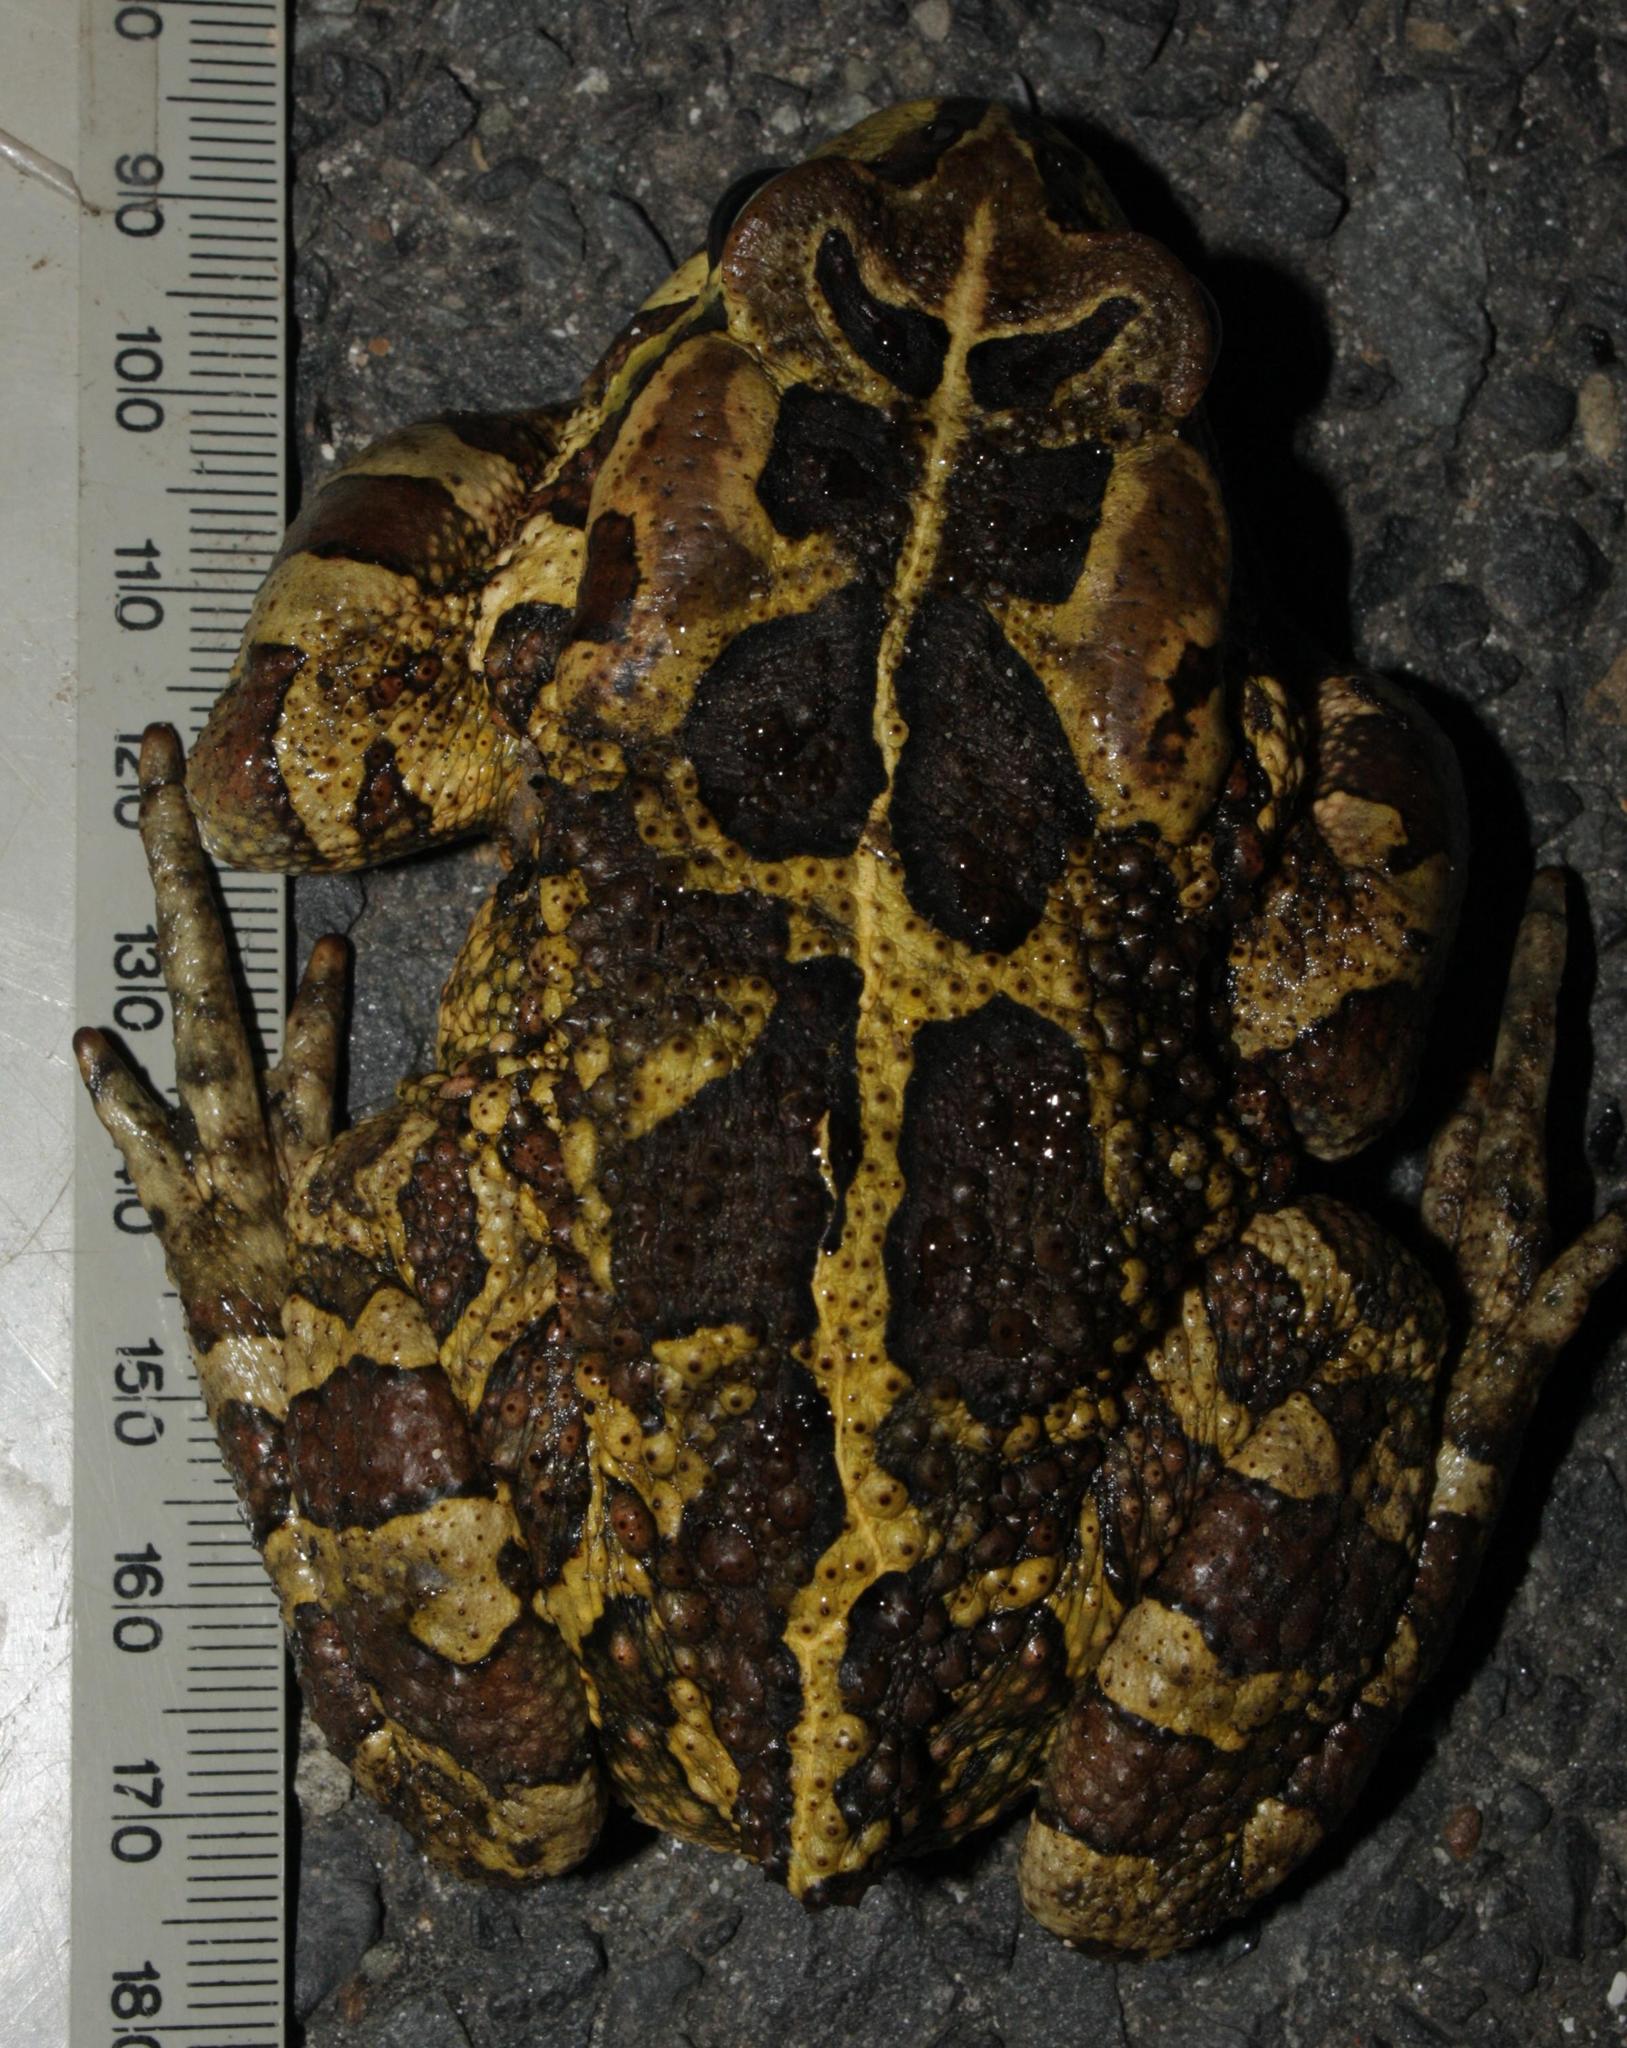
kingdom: Animalia
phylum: Chordata
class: Amphibia
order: Anura
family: Bufonidae
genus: Sclerophrys
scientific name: Sclerophrys pantherina
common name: Panther toad
